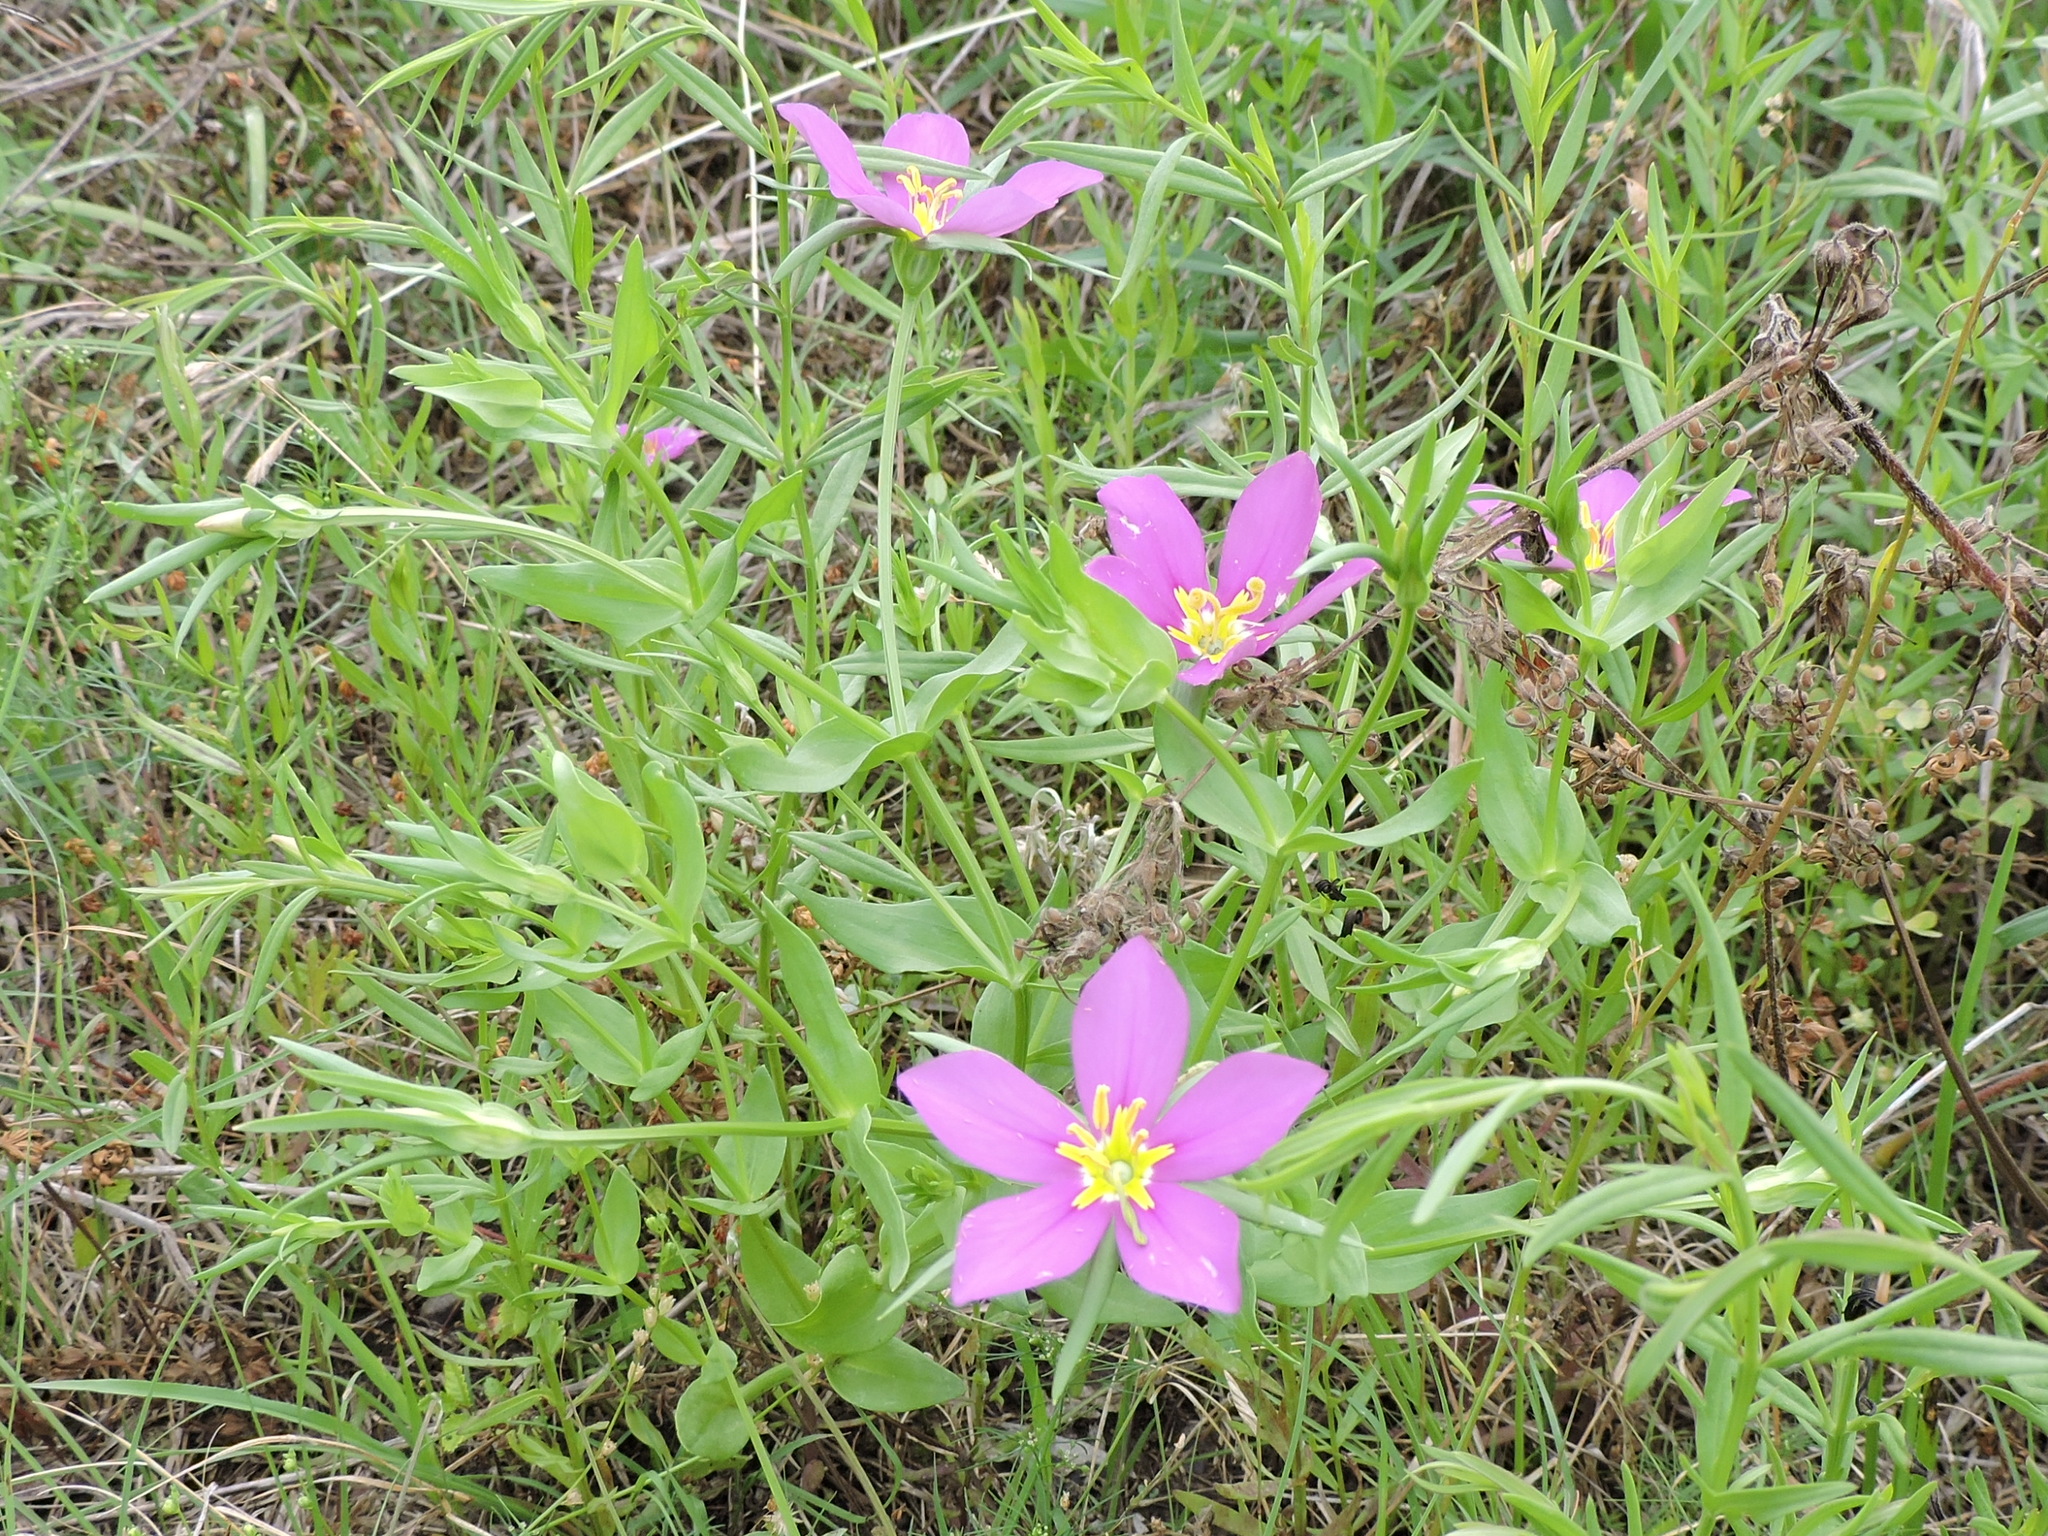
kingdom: Plantae
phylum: Tracheophyta
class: Magnoliopsida
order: Gentianales
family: Gentianaceae
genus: Sabatia
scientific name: Sabatia campestris
